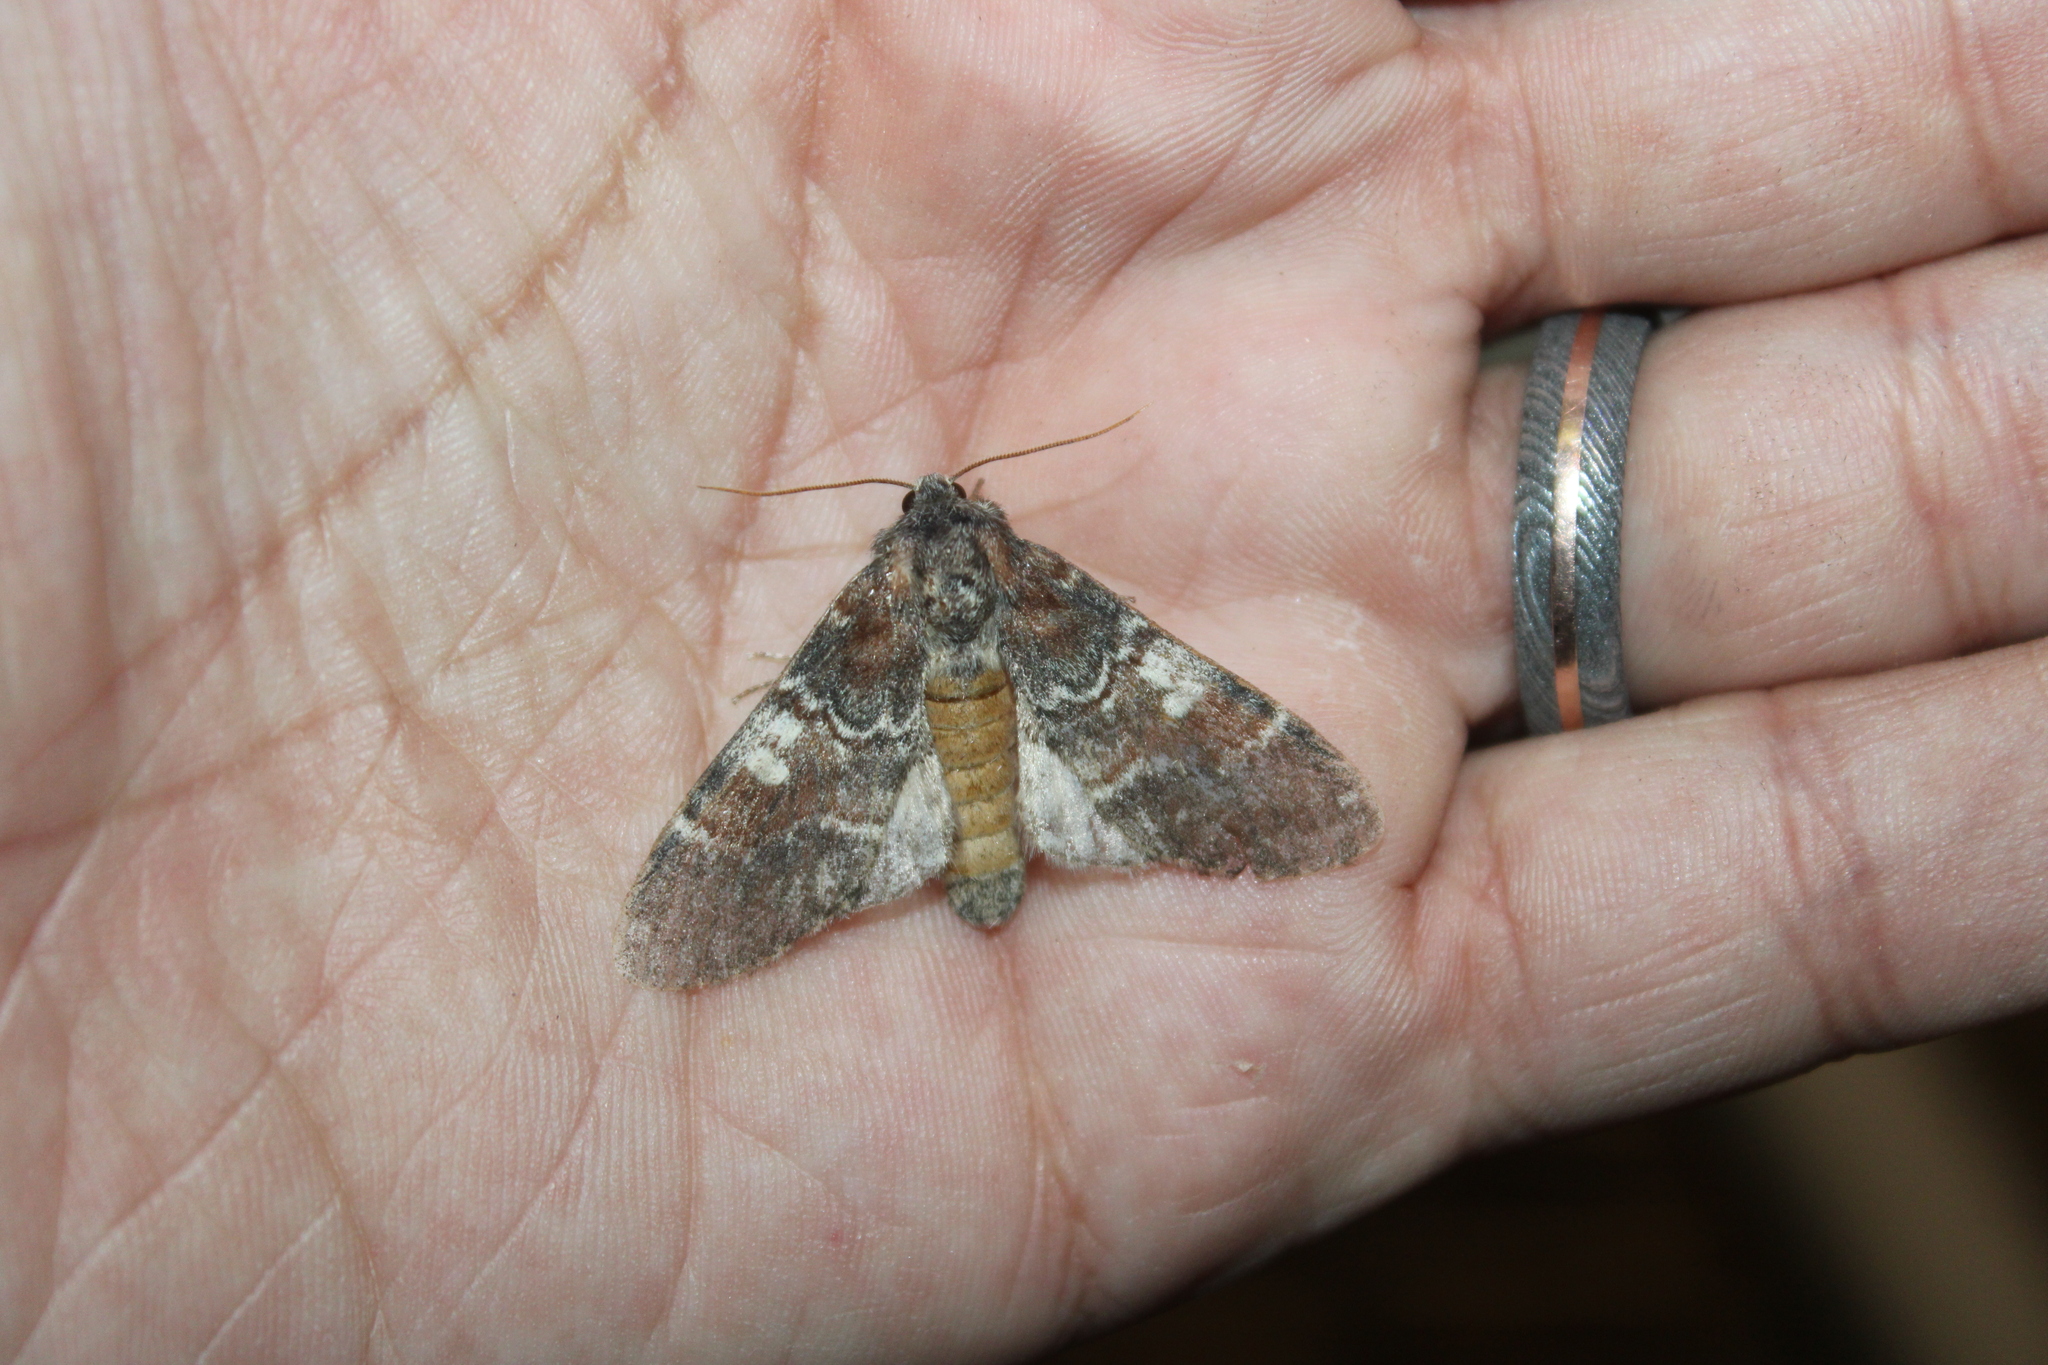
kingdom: Animalia
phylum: Arthropoda
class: Insecta
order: Lepidoptera
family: Notodontidae
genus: Peridea
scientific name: Peridea ferruginea
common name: Chocolate prominent
